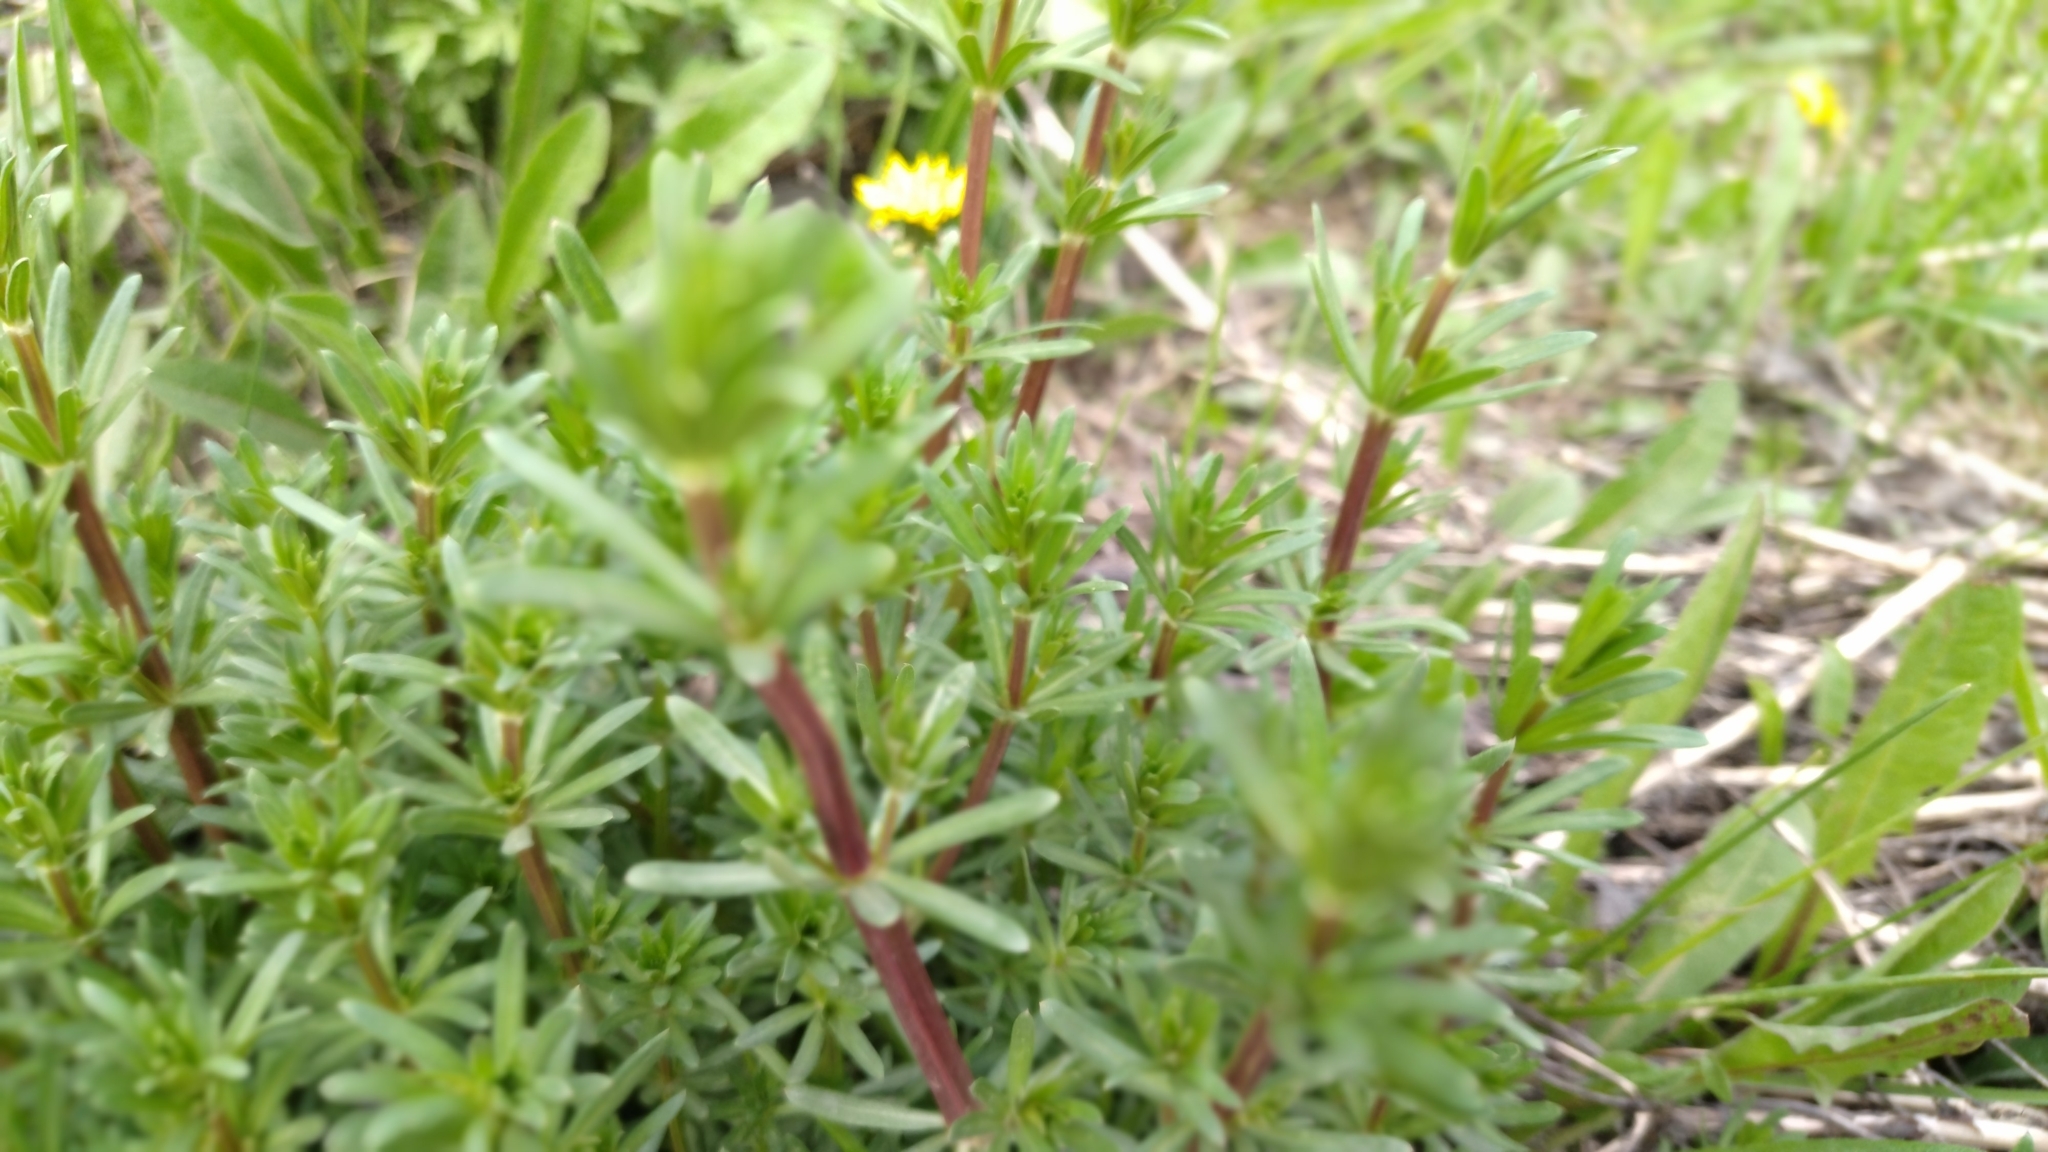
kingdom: Plantae
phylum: Tracheophyta
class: Magnoliopsida
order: Gentianales
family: Rubiaceae
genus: Galium
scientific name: Galium mollugo
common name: Hedge bedstraw
